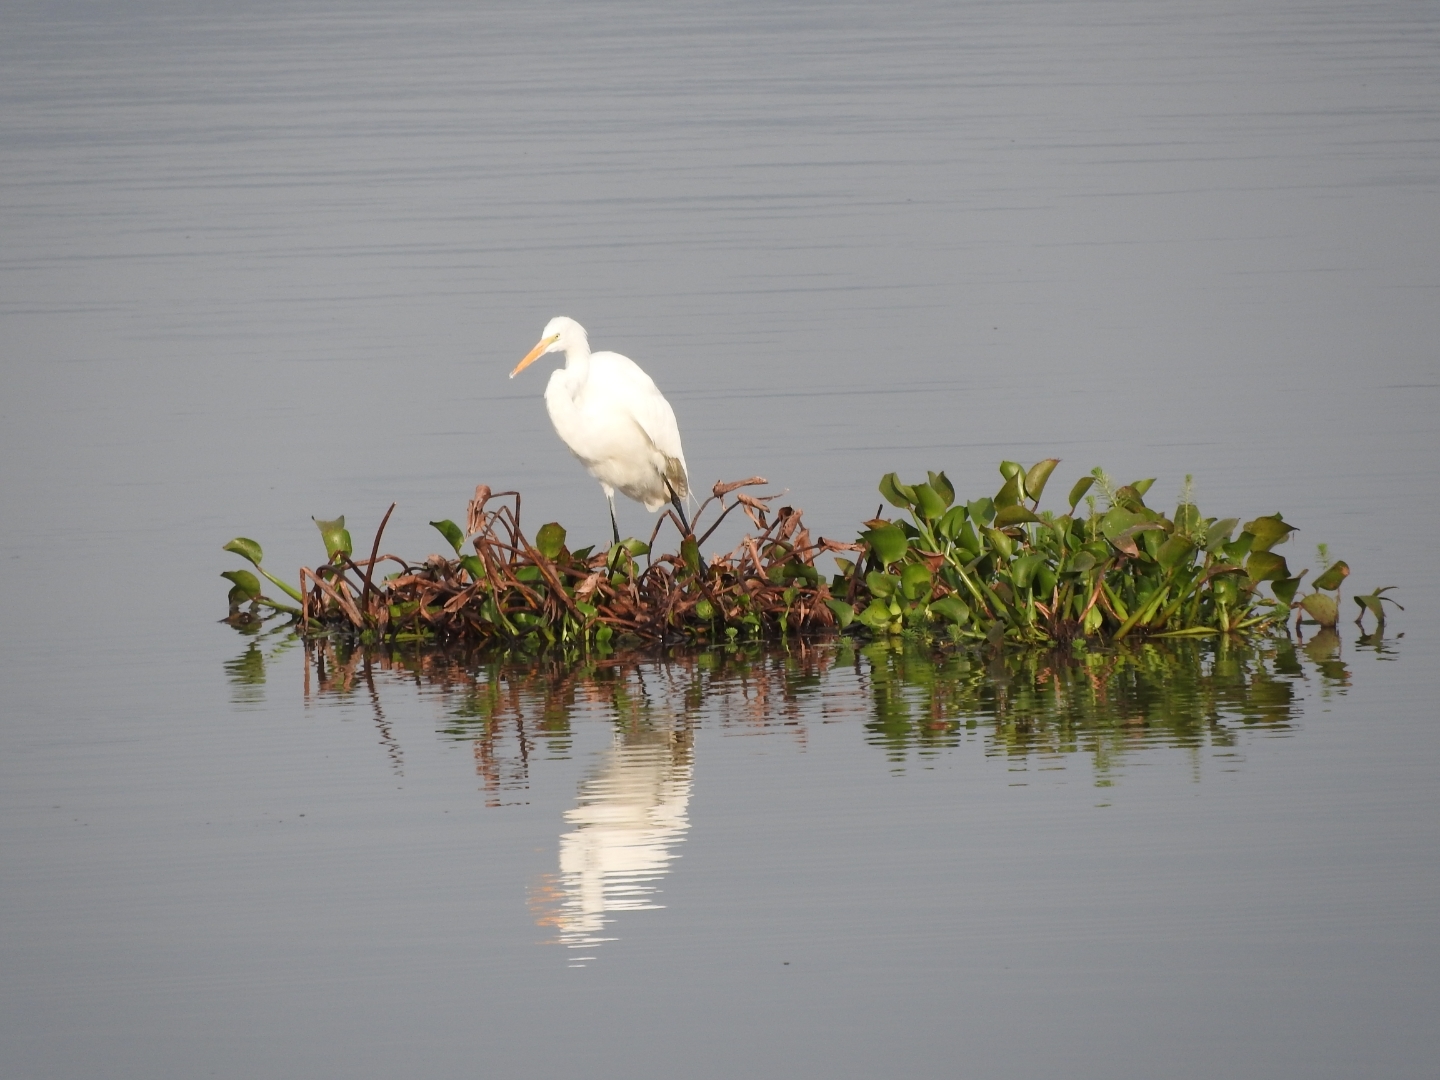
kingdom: Animalia
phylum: Chordata
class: Aves
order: Pelecaniformes
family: Ardeidae
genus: Ardea
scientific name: Ardea alba
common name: Great egret
